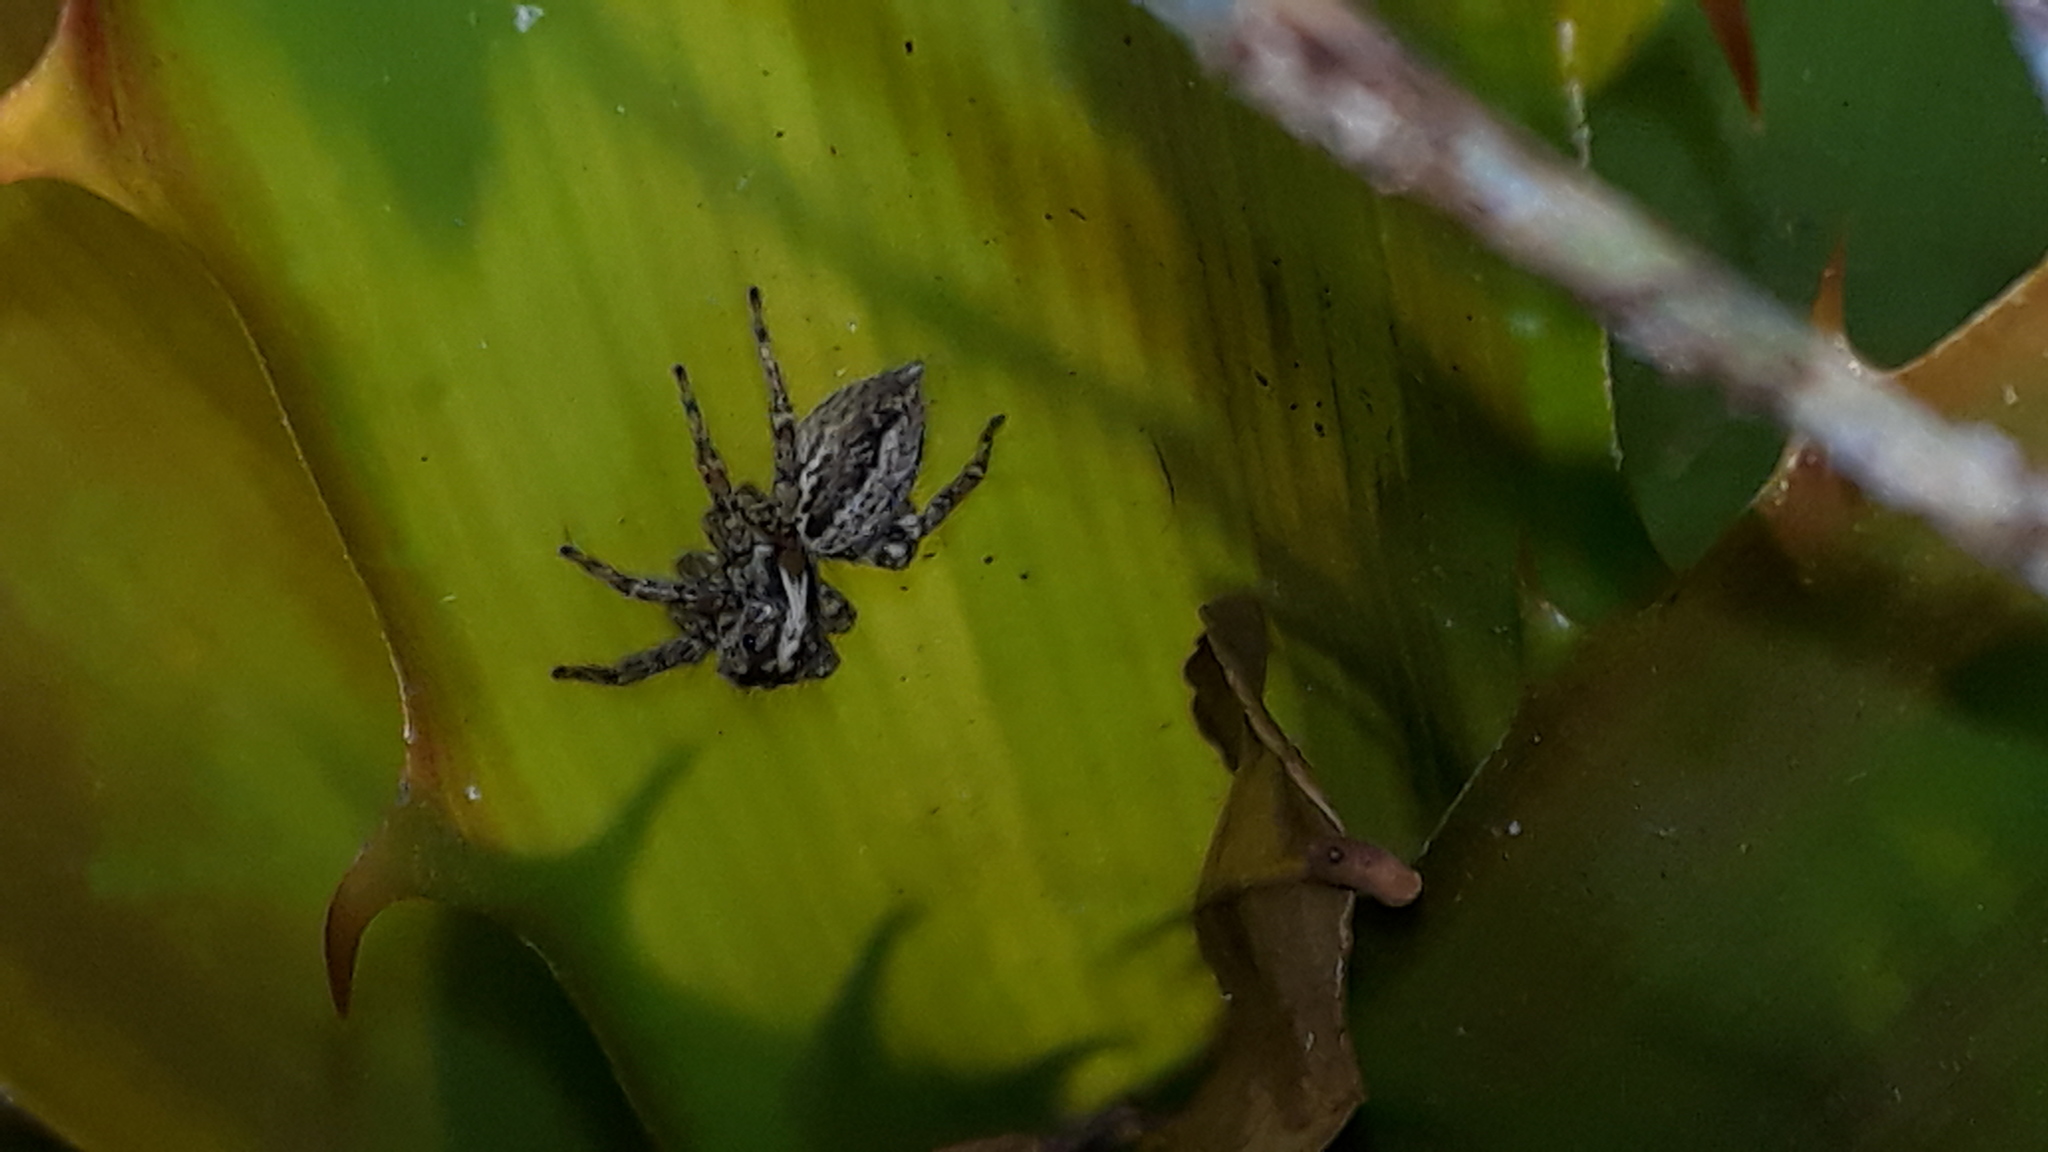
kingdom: Animalia
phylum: Arthropoda
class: Arachnida
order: Araneae
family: Salticidae
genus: Asaphobelis
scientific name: Asaphobelis physonychus
